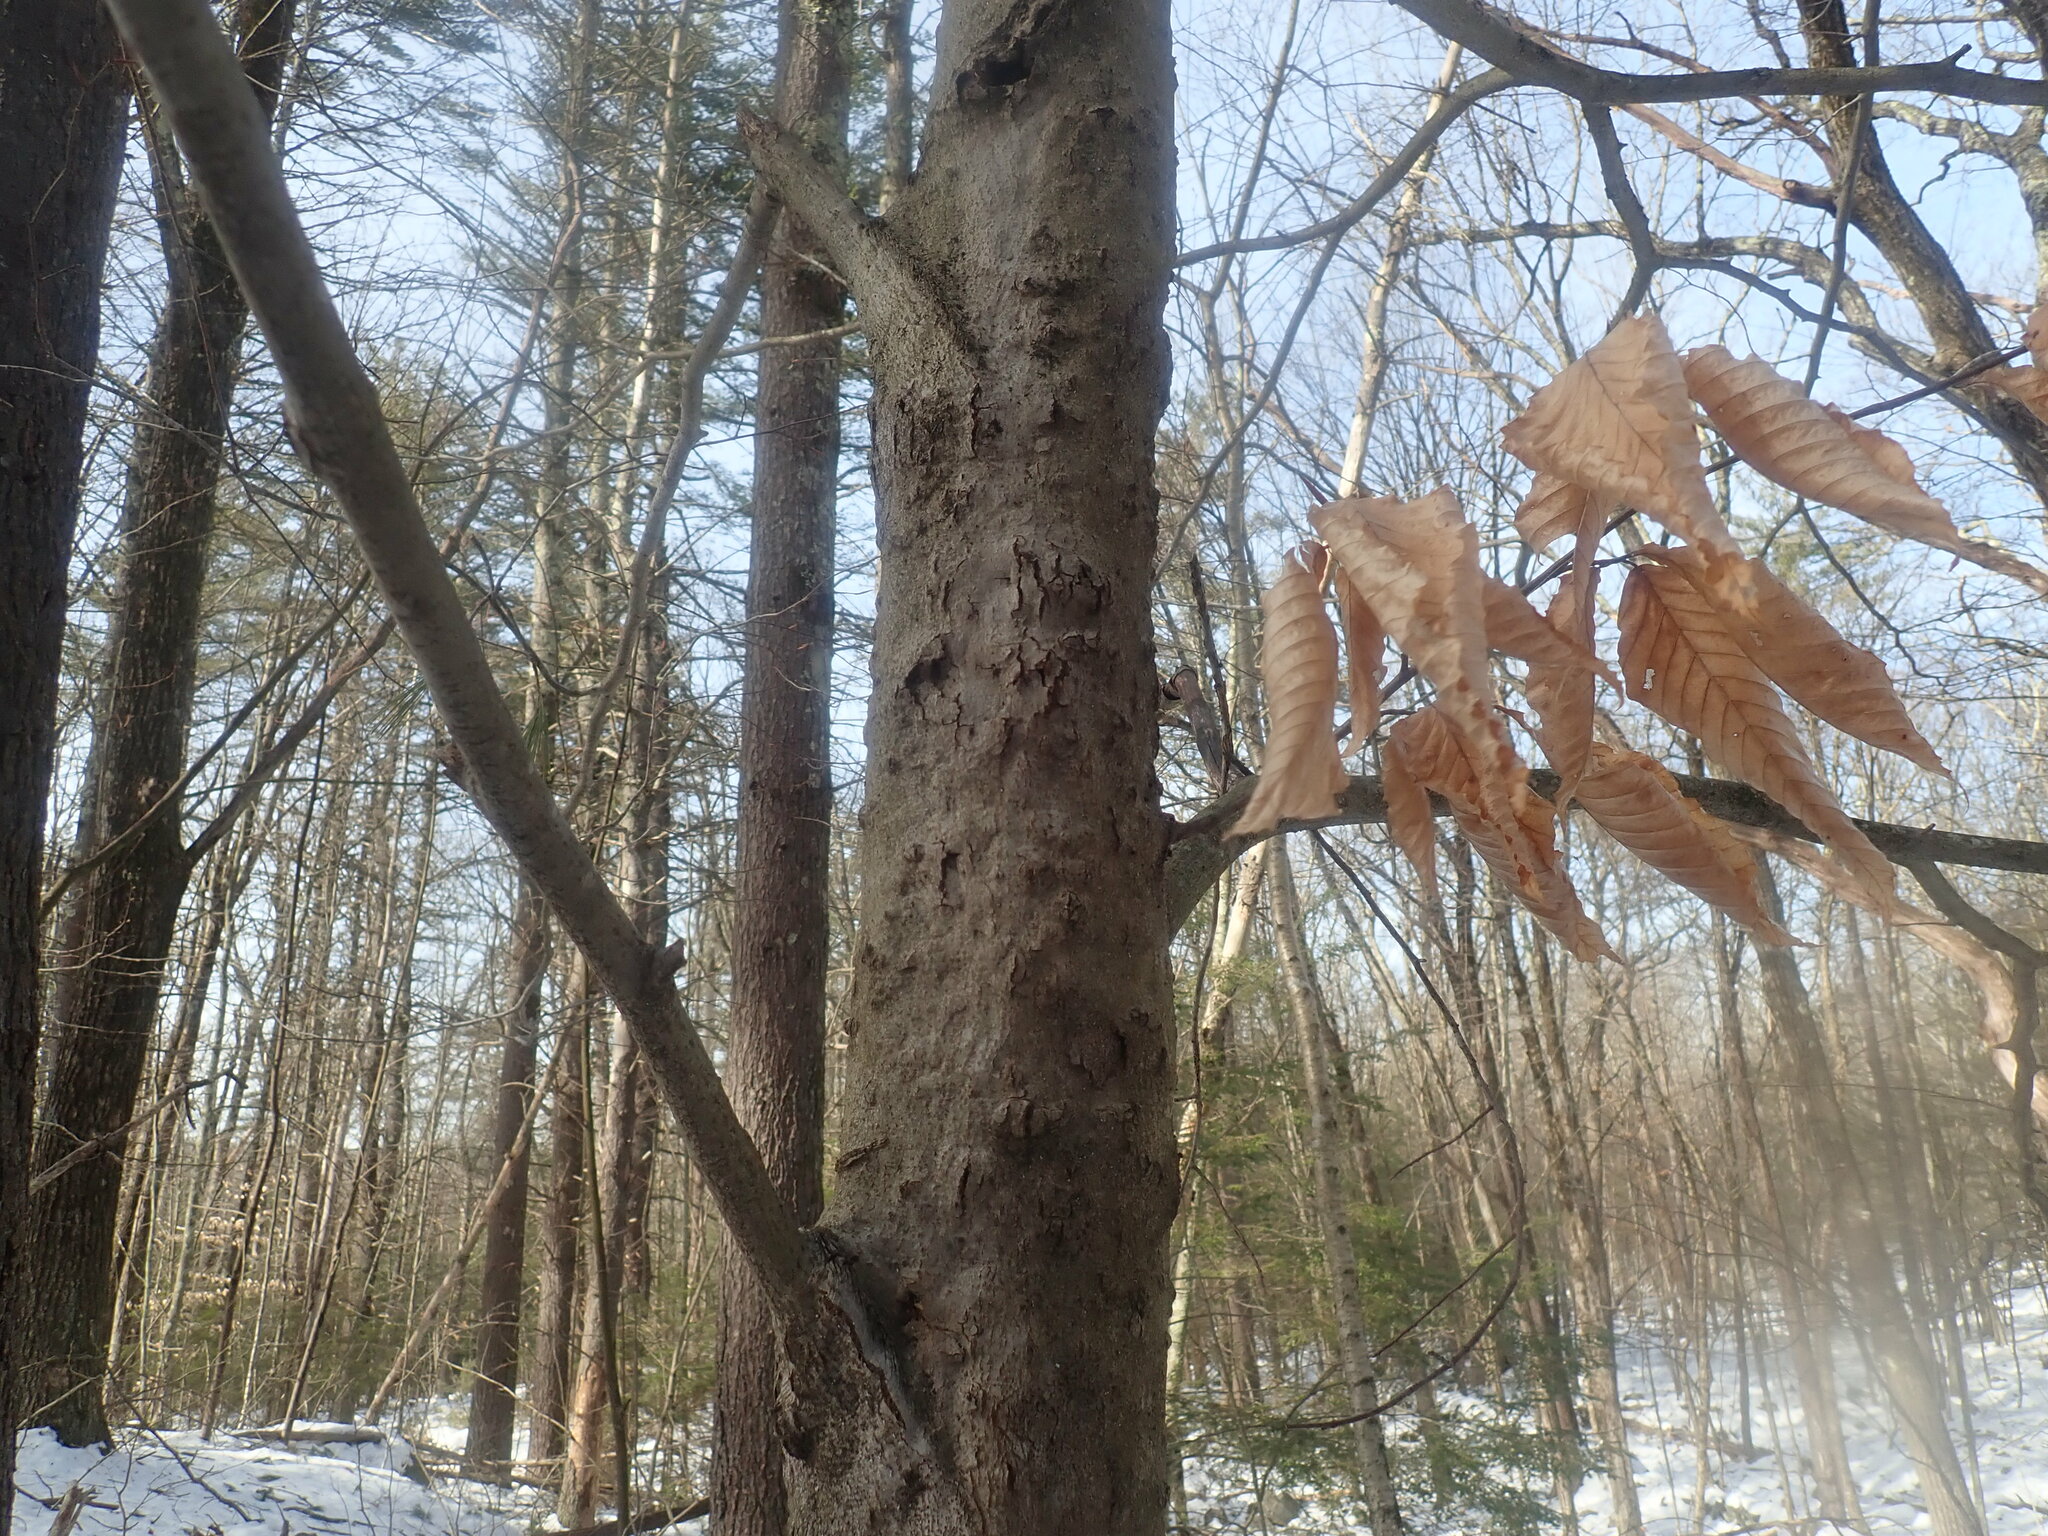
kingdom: Fungi
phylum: Ascomycota
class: Sordariomycetes
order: Hypocreales
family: Nectriaceae
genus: Neonectria
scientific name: Neonectria faginata
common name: Beech bark canker
